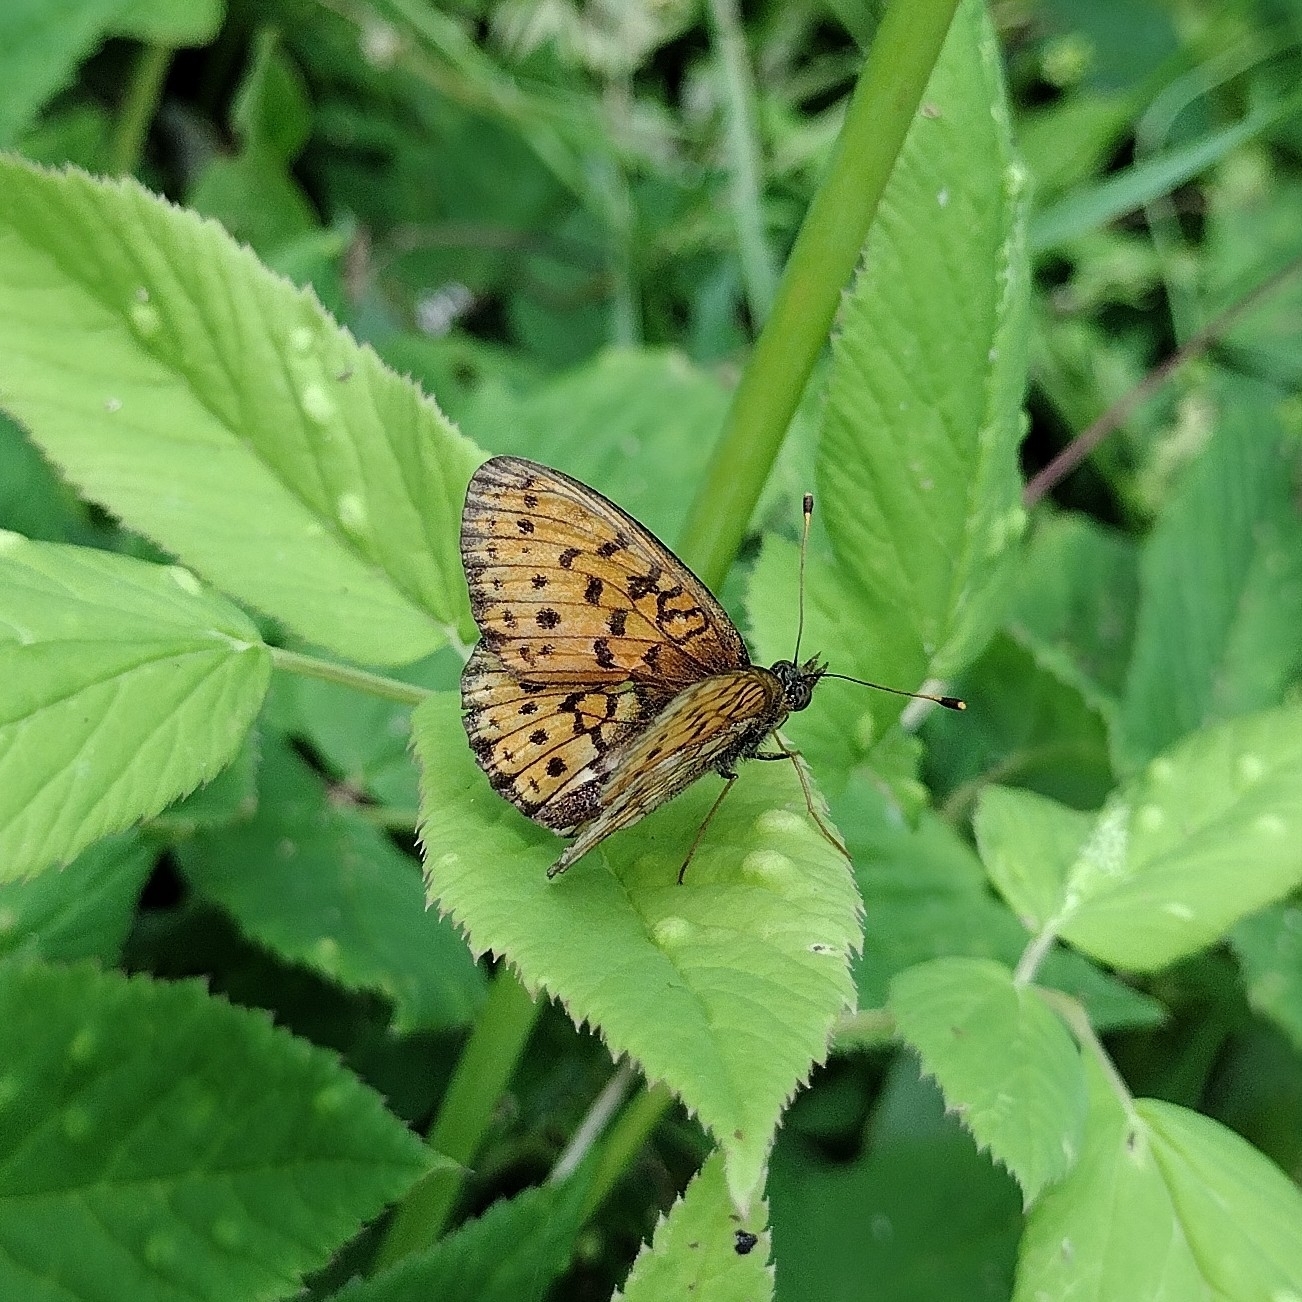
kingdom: Animalia
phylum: Arthropoda
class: Insecta
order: Lepidoptera
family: Nymphalidae
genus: Brenthis
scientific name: Brenthis ino
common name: Lesser marbled fritillary
